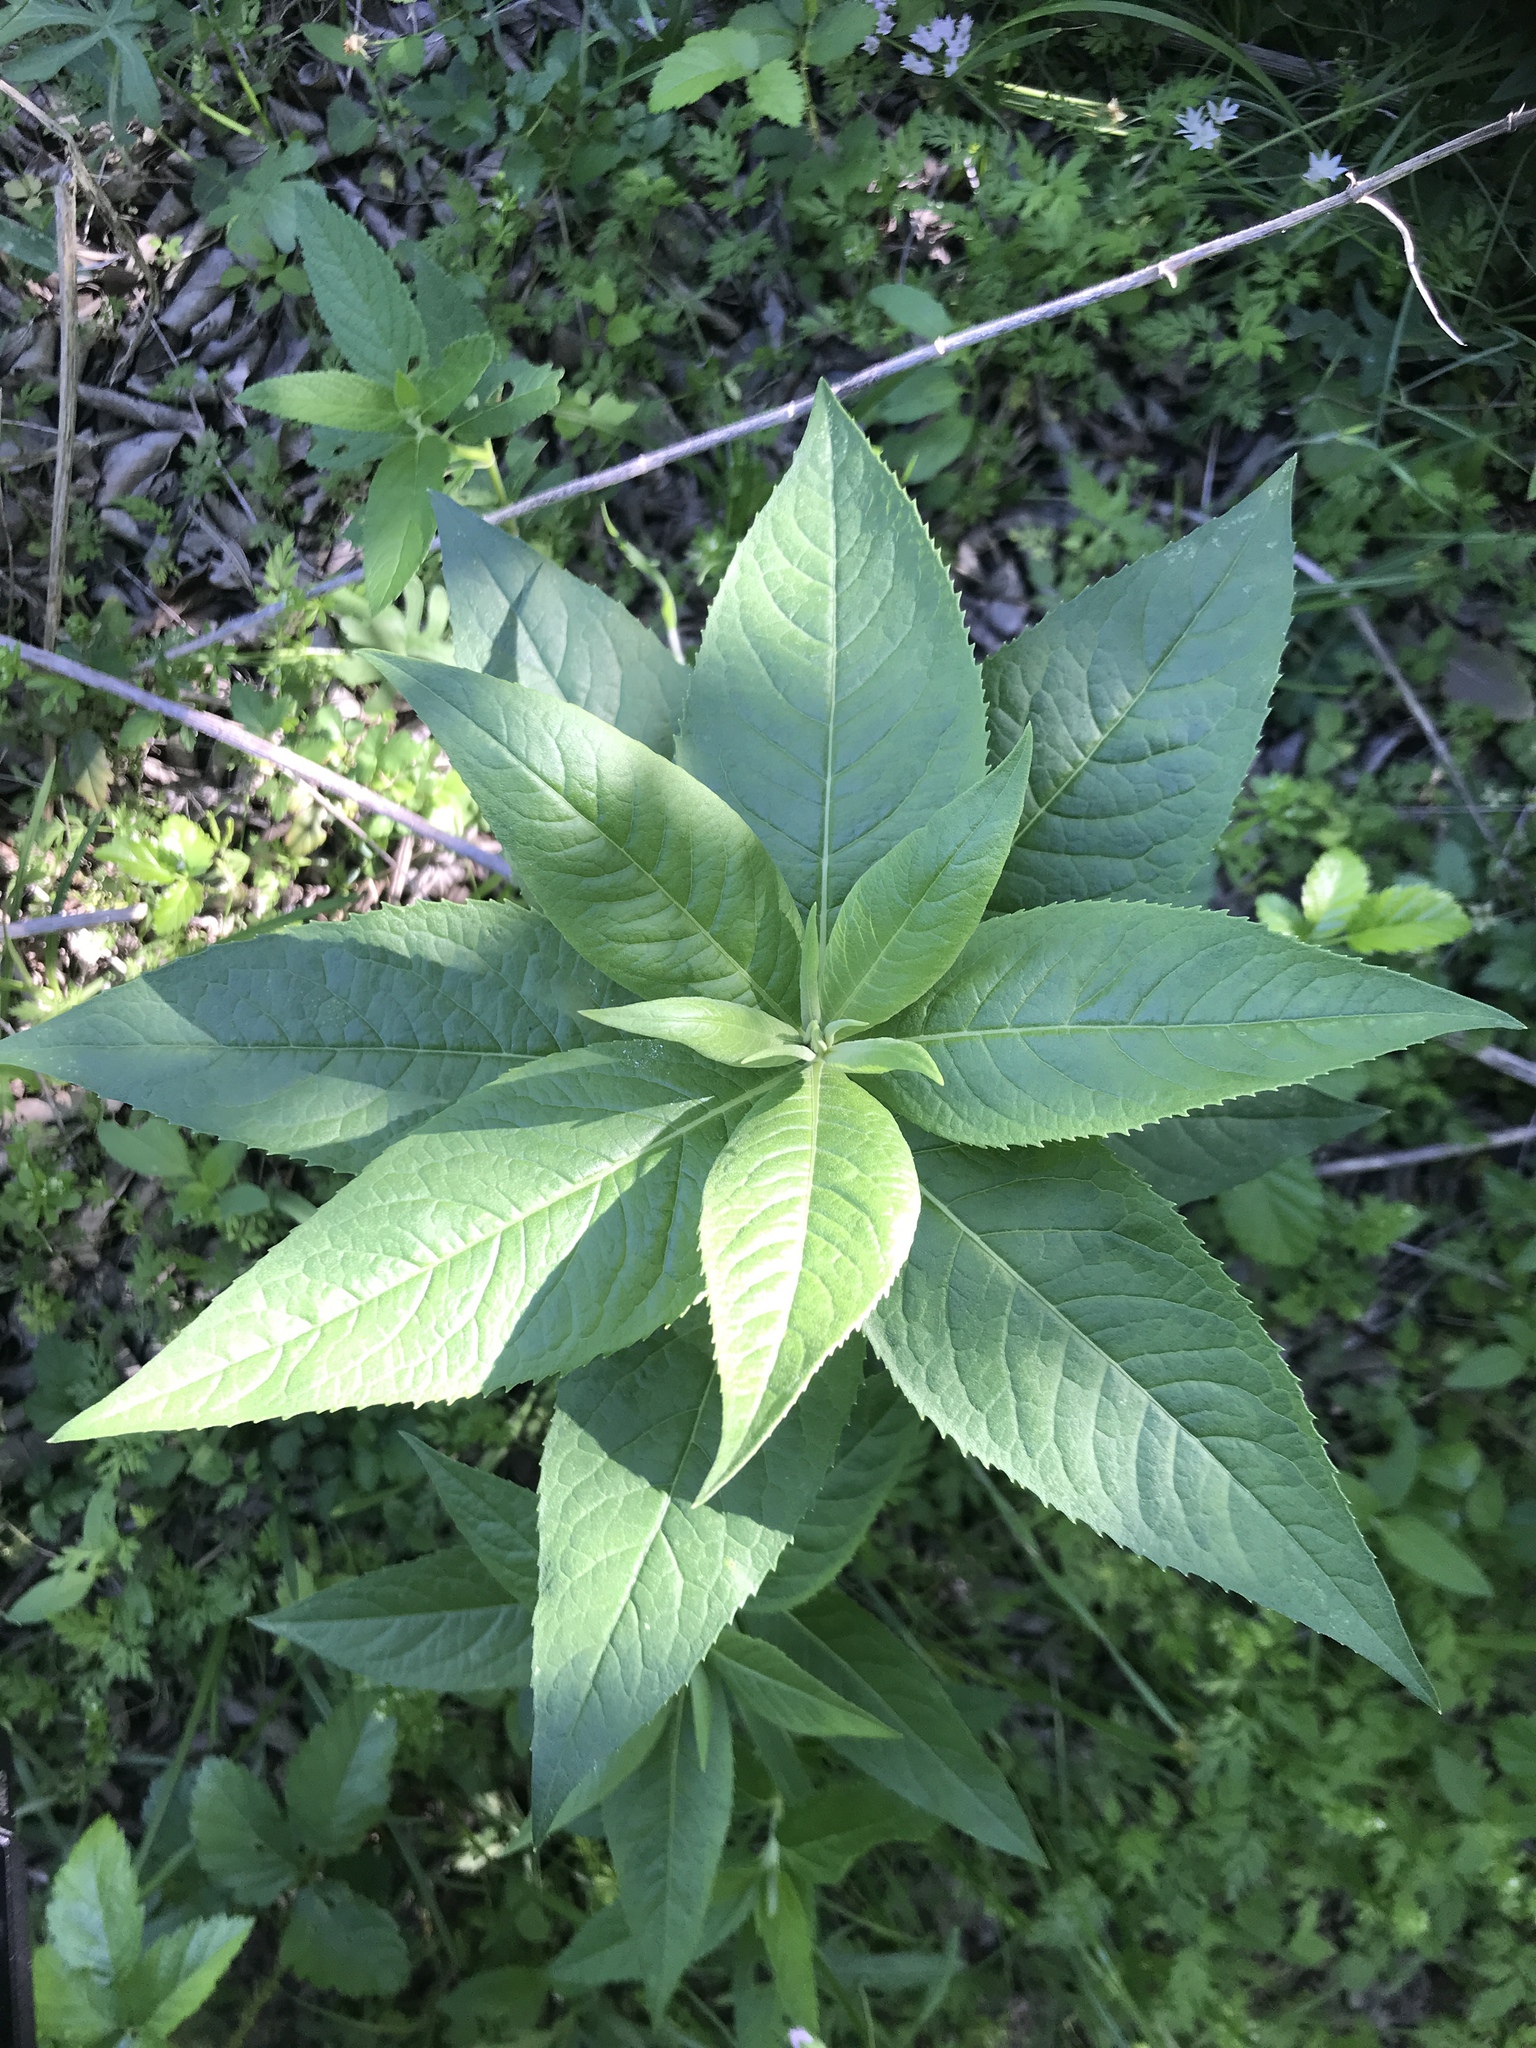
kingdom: Plantae
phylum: Tracheophyta
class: Magnoliopsida
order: Asterales
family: Asteraceae
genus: Vernonia
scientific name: Vernonia baldwinii
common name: Western ironweed
